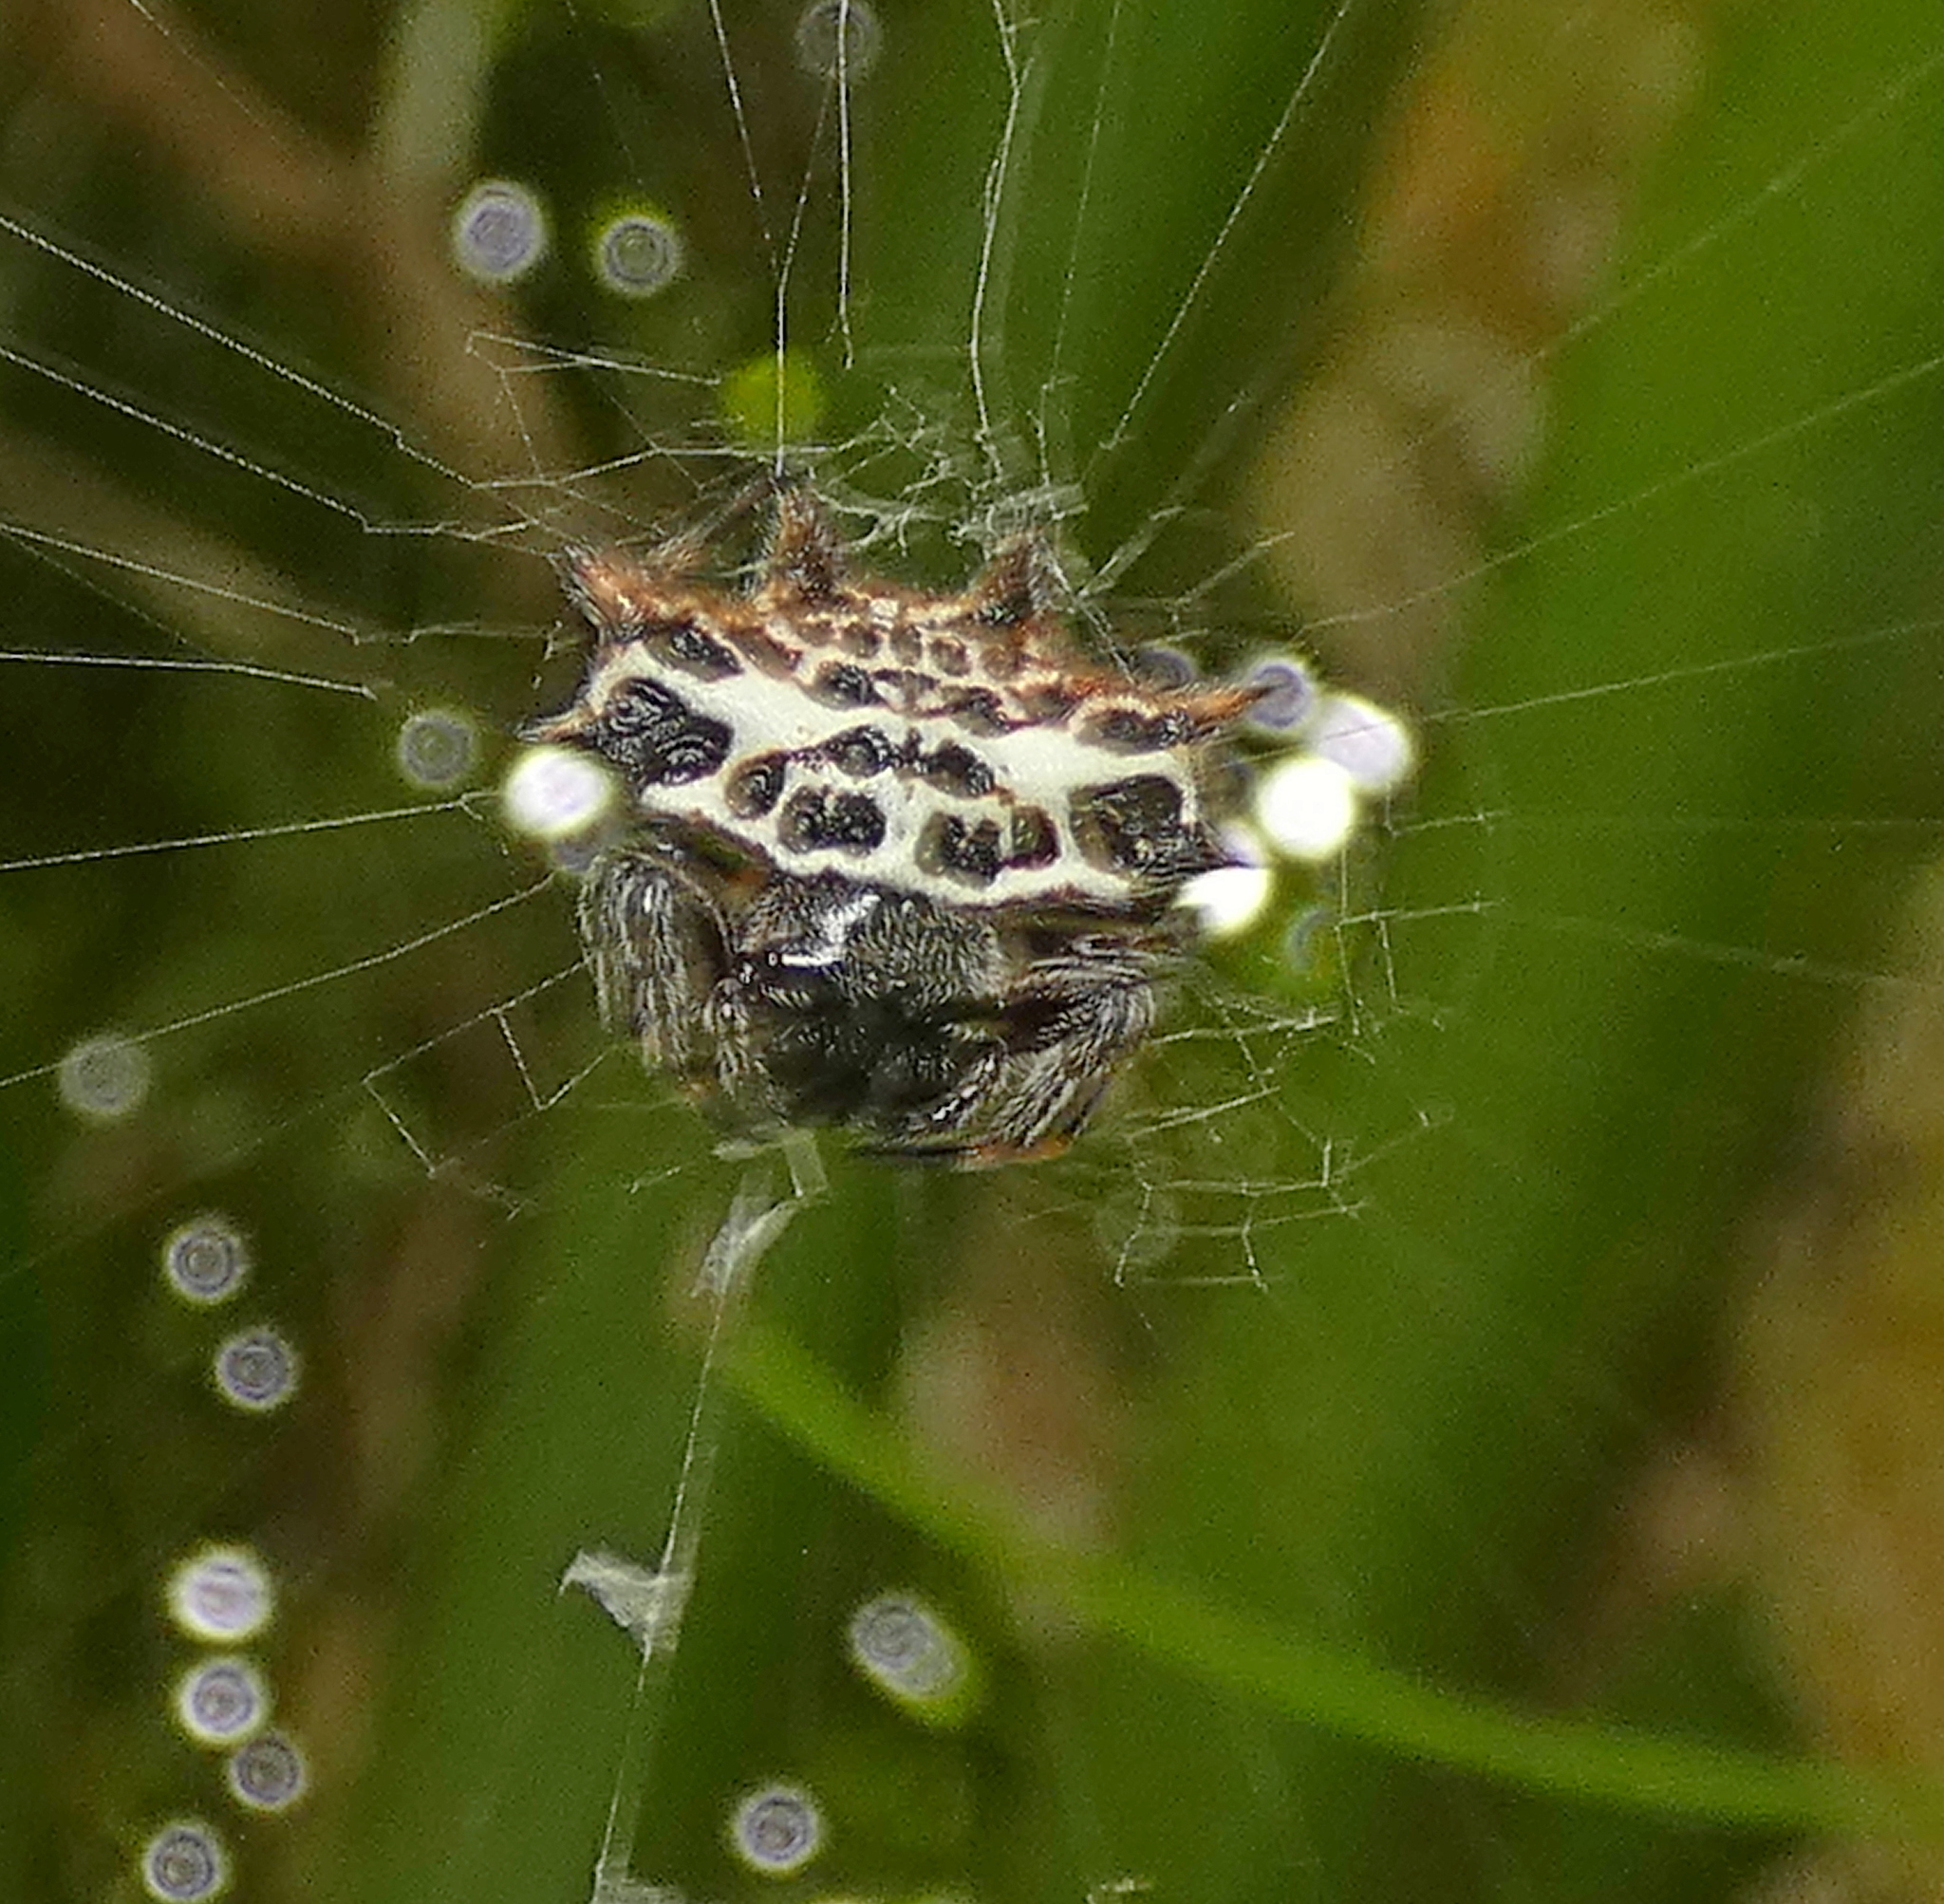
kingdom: Animalia
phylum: Arthropoda
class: Arachnida
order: Araneae
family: Araneidae
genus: Gasteracantha
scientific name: Gasteracantha cancriformis
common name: Orb weavers
